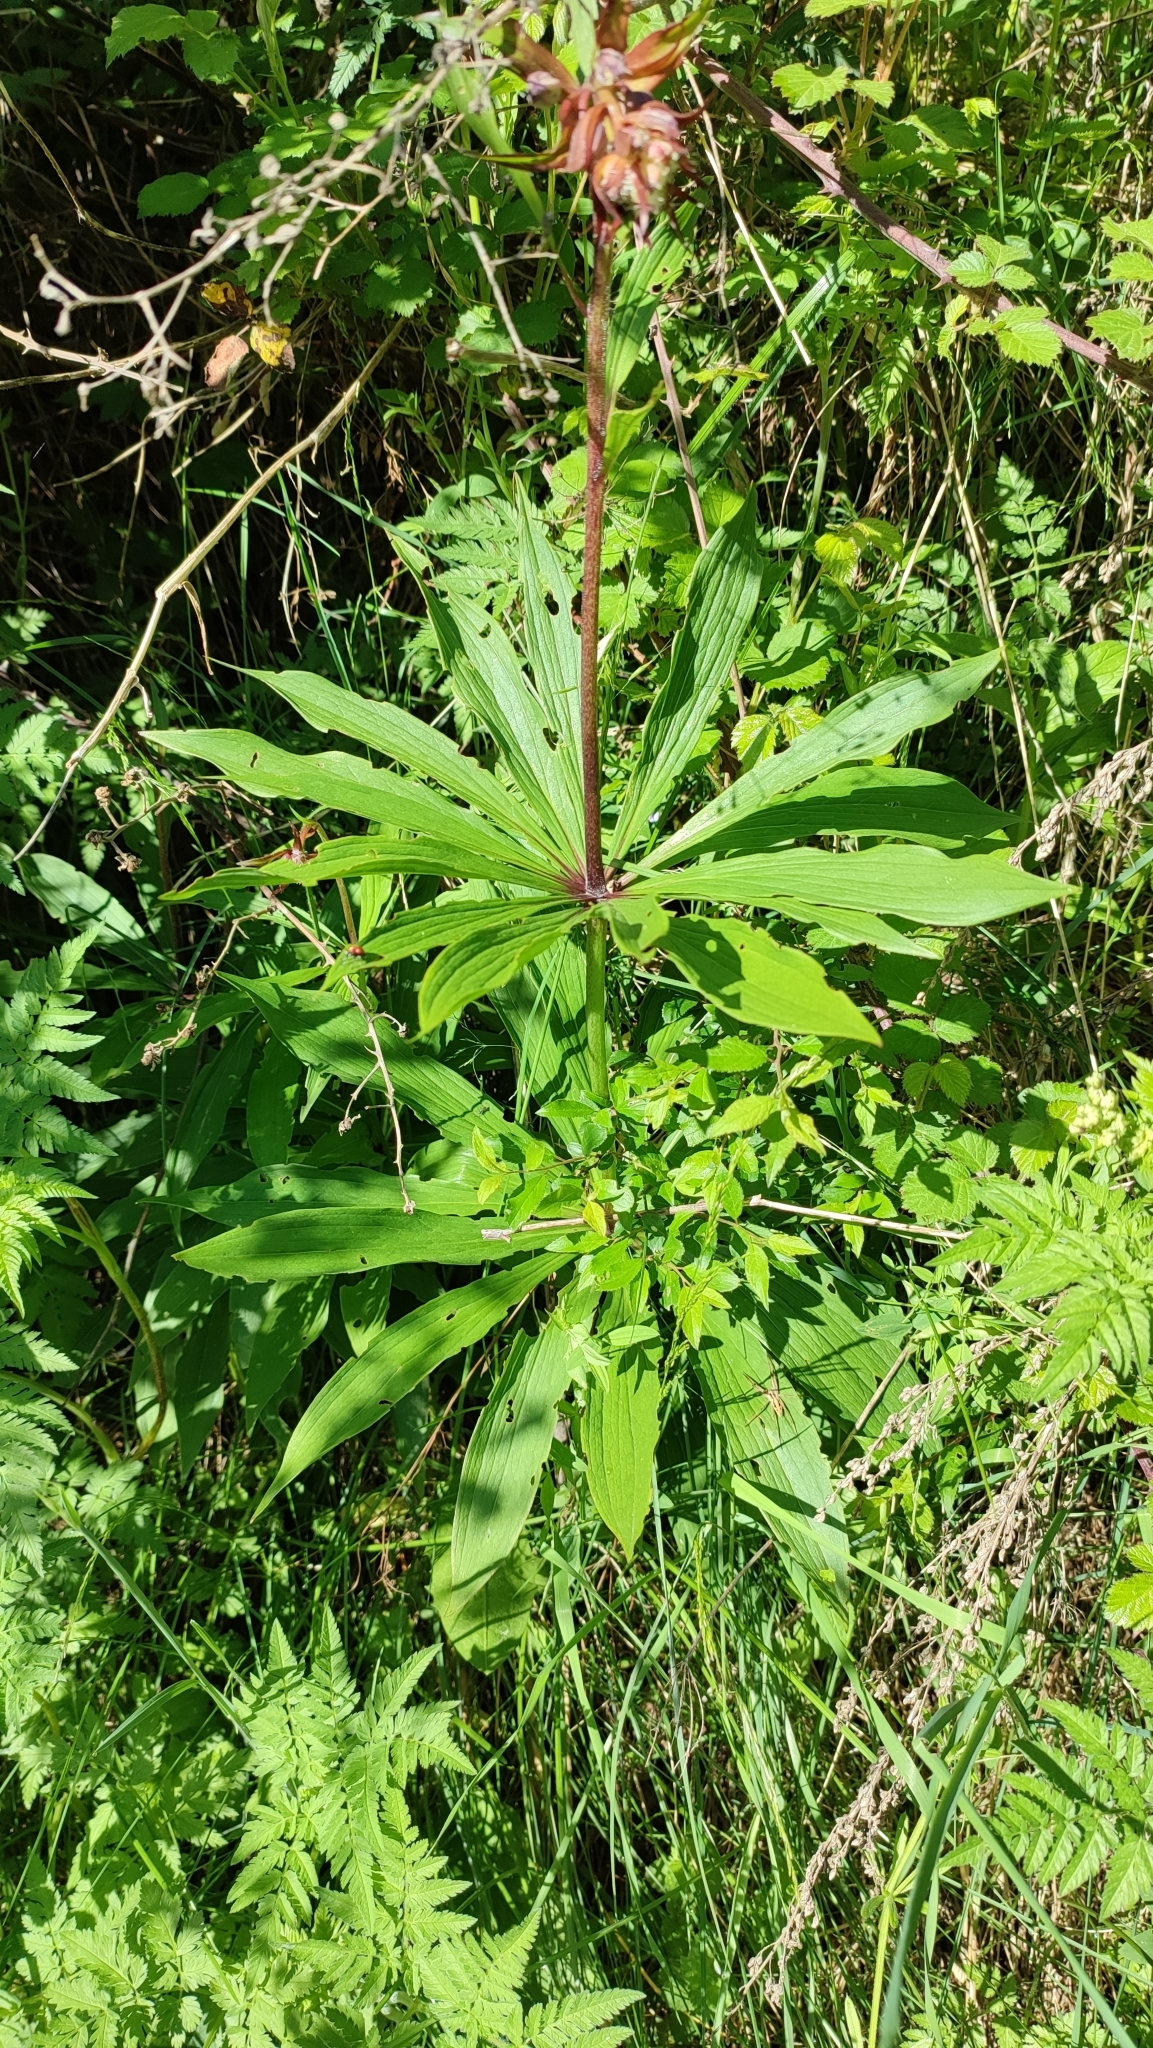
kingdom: Plantae
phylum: Tracheophyta
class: Liliopsida
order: Liliales
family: Liliaceae
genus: Lilium
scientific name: Lilium martagon
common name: Martagon lily
